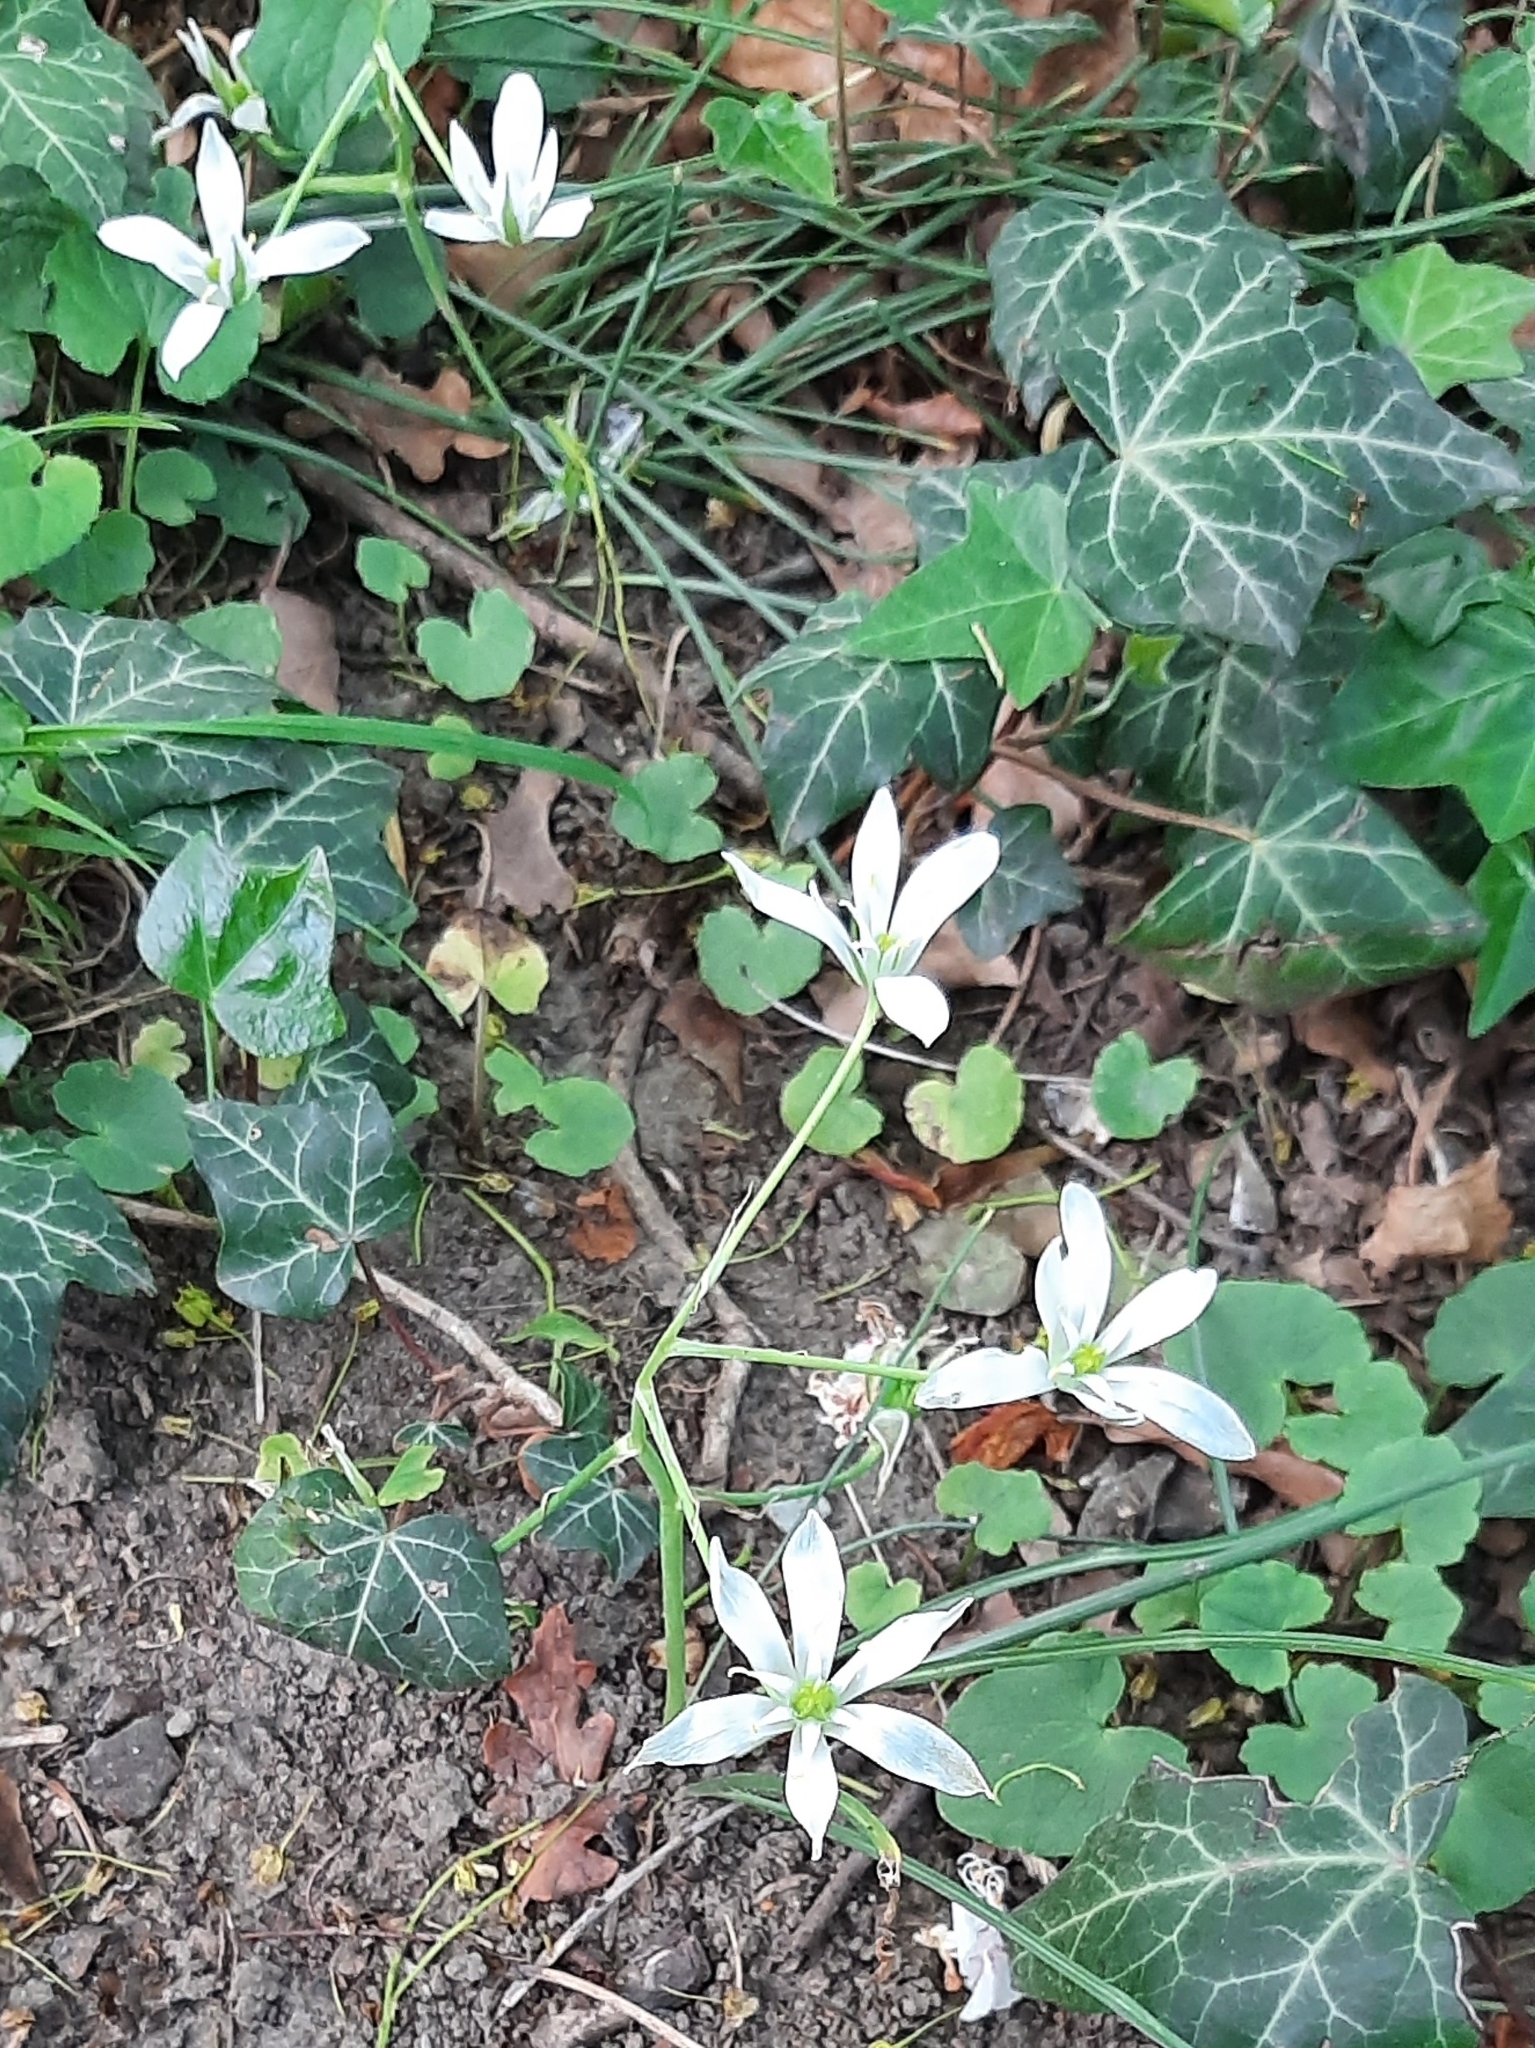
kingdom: Plantae
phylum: Tracheophyta
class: Magnoliopsida
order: Apiales
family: Araliaceae
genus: Hedera
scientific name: Hedera helix
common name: Ivy
